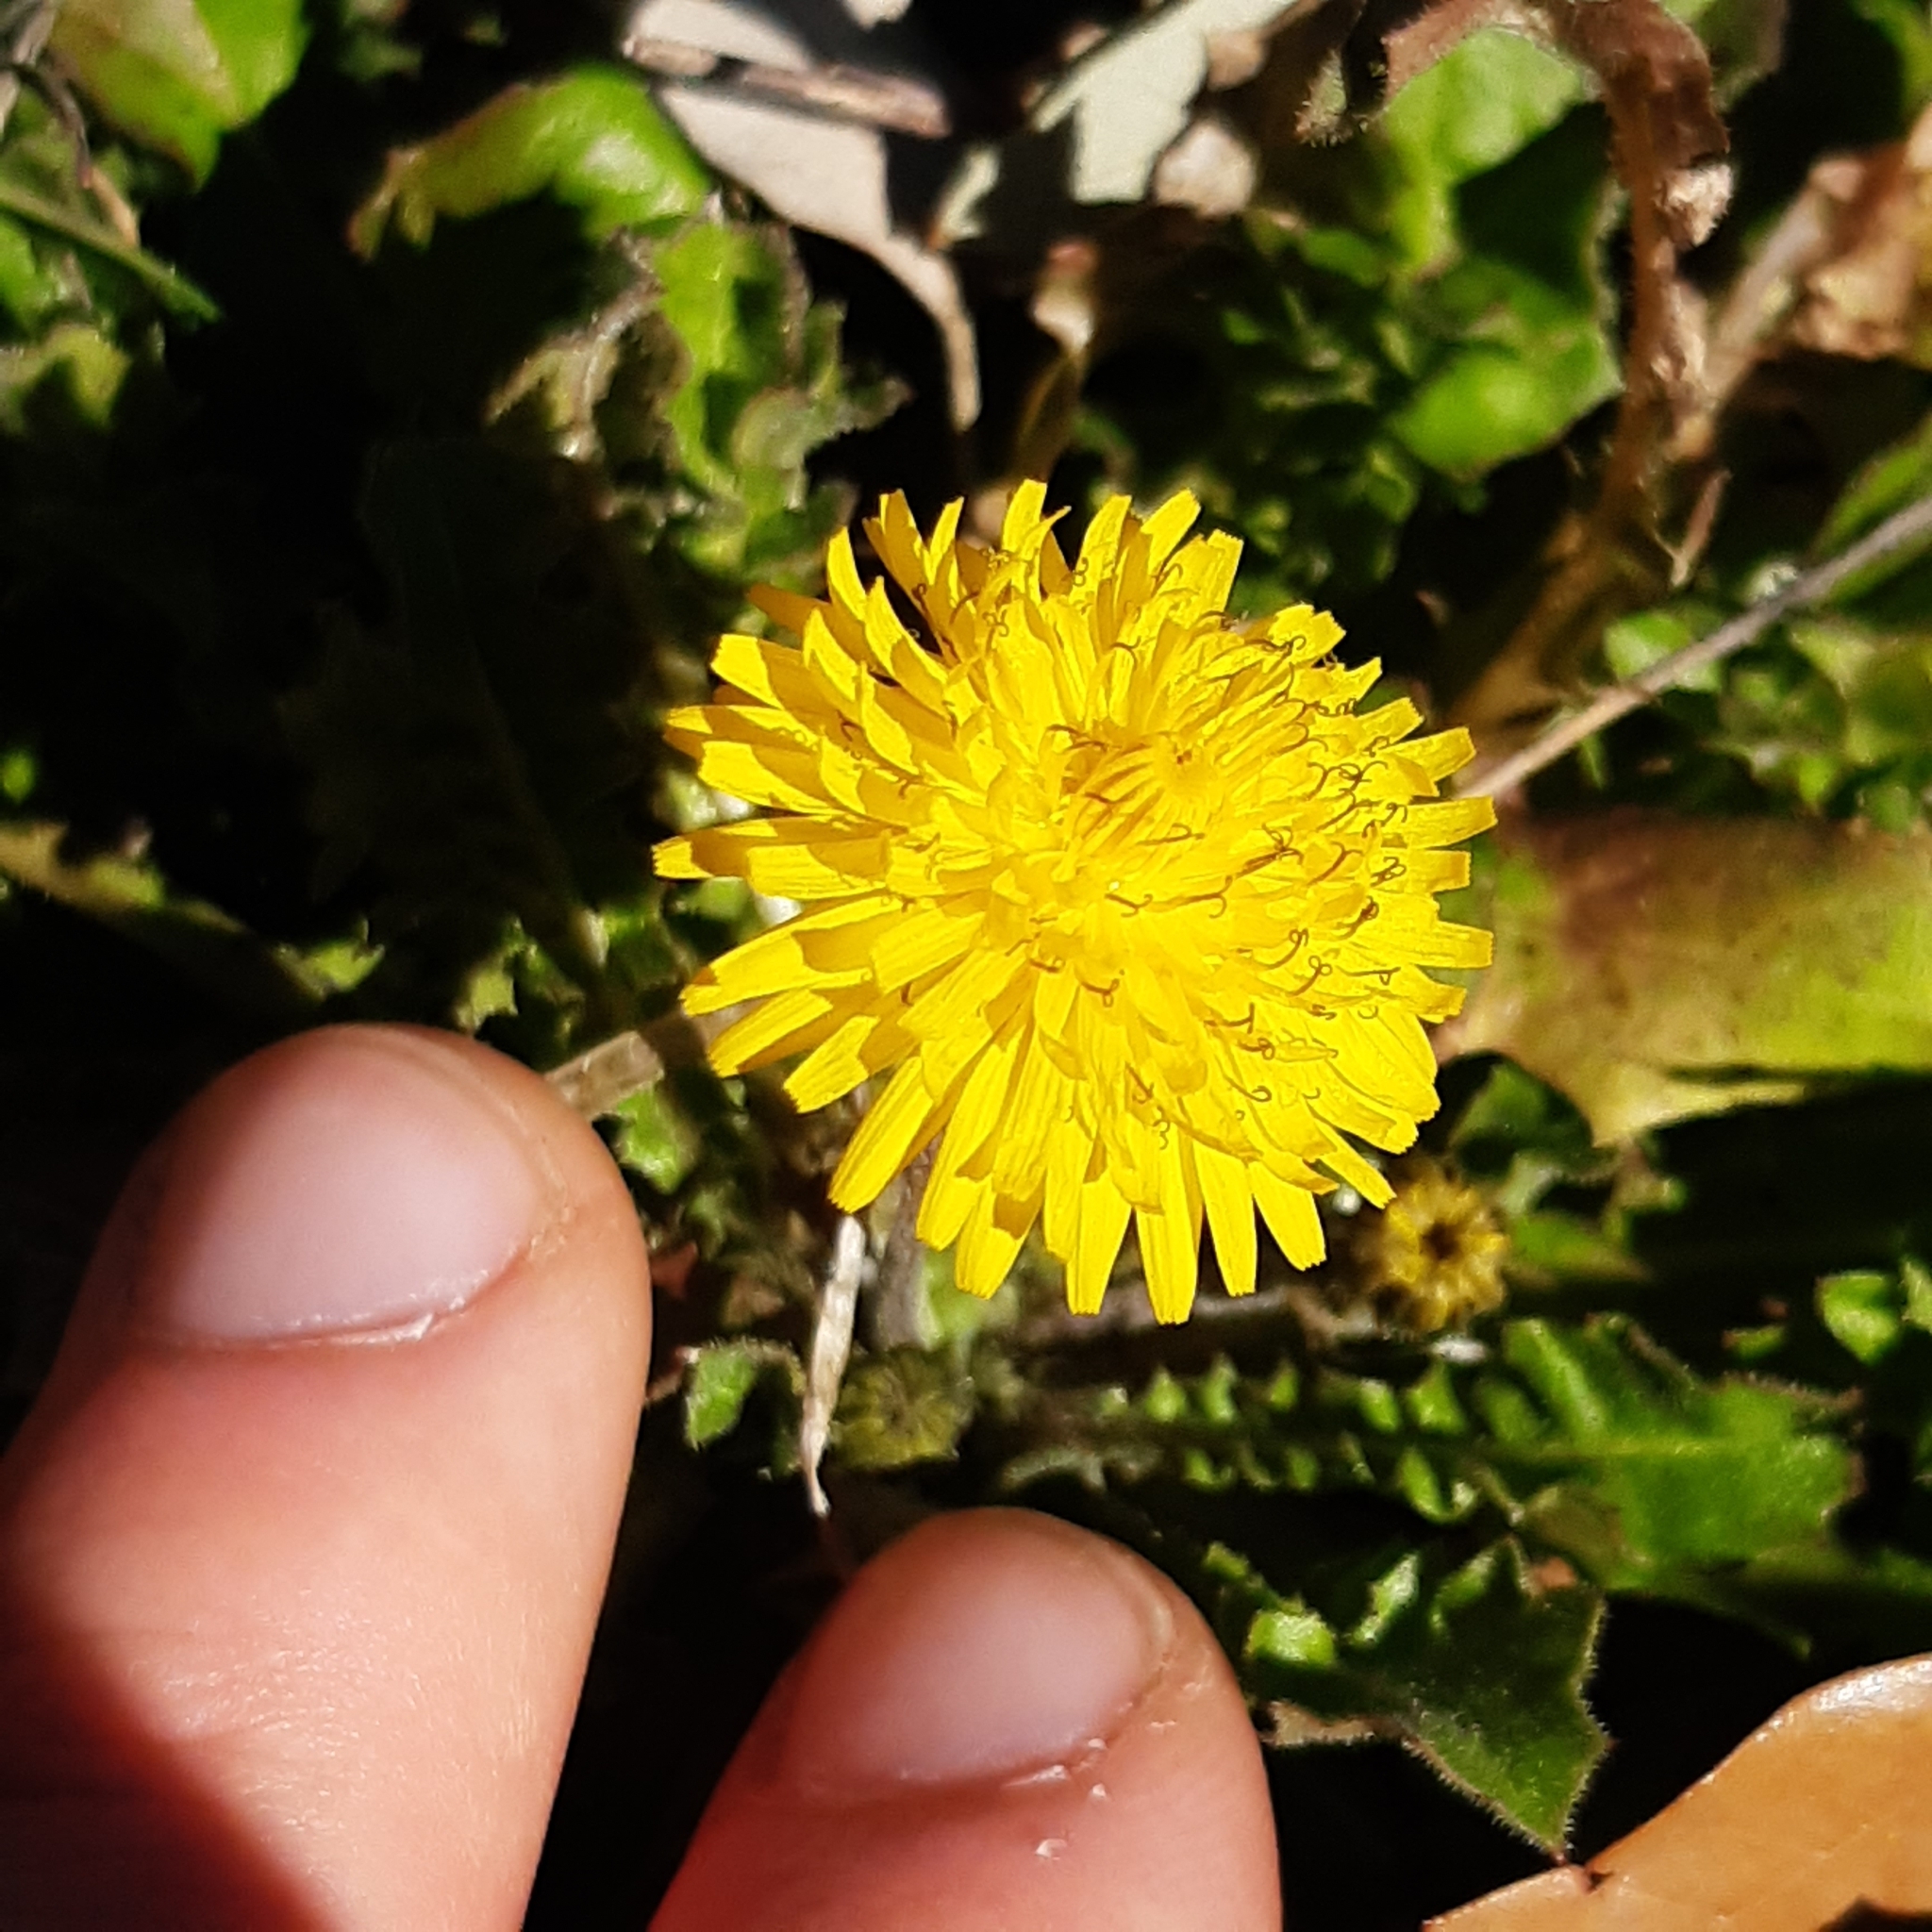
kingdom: Plantae
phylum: Tracheophyta
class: Magnoliopsida
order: Asterales
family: Asteraceae
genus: Crepis
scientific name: Crepis sancta
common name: Hawk's-beard
